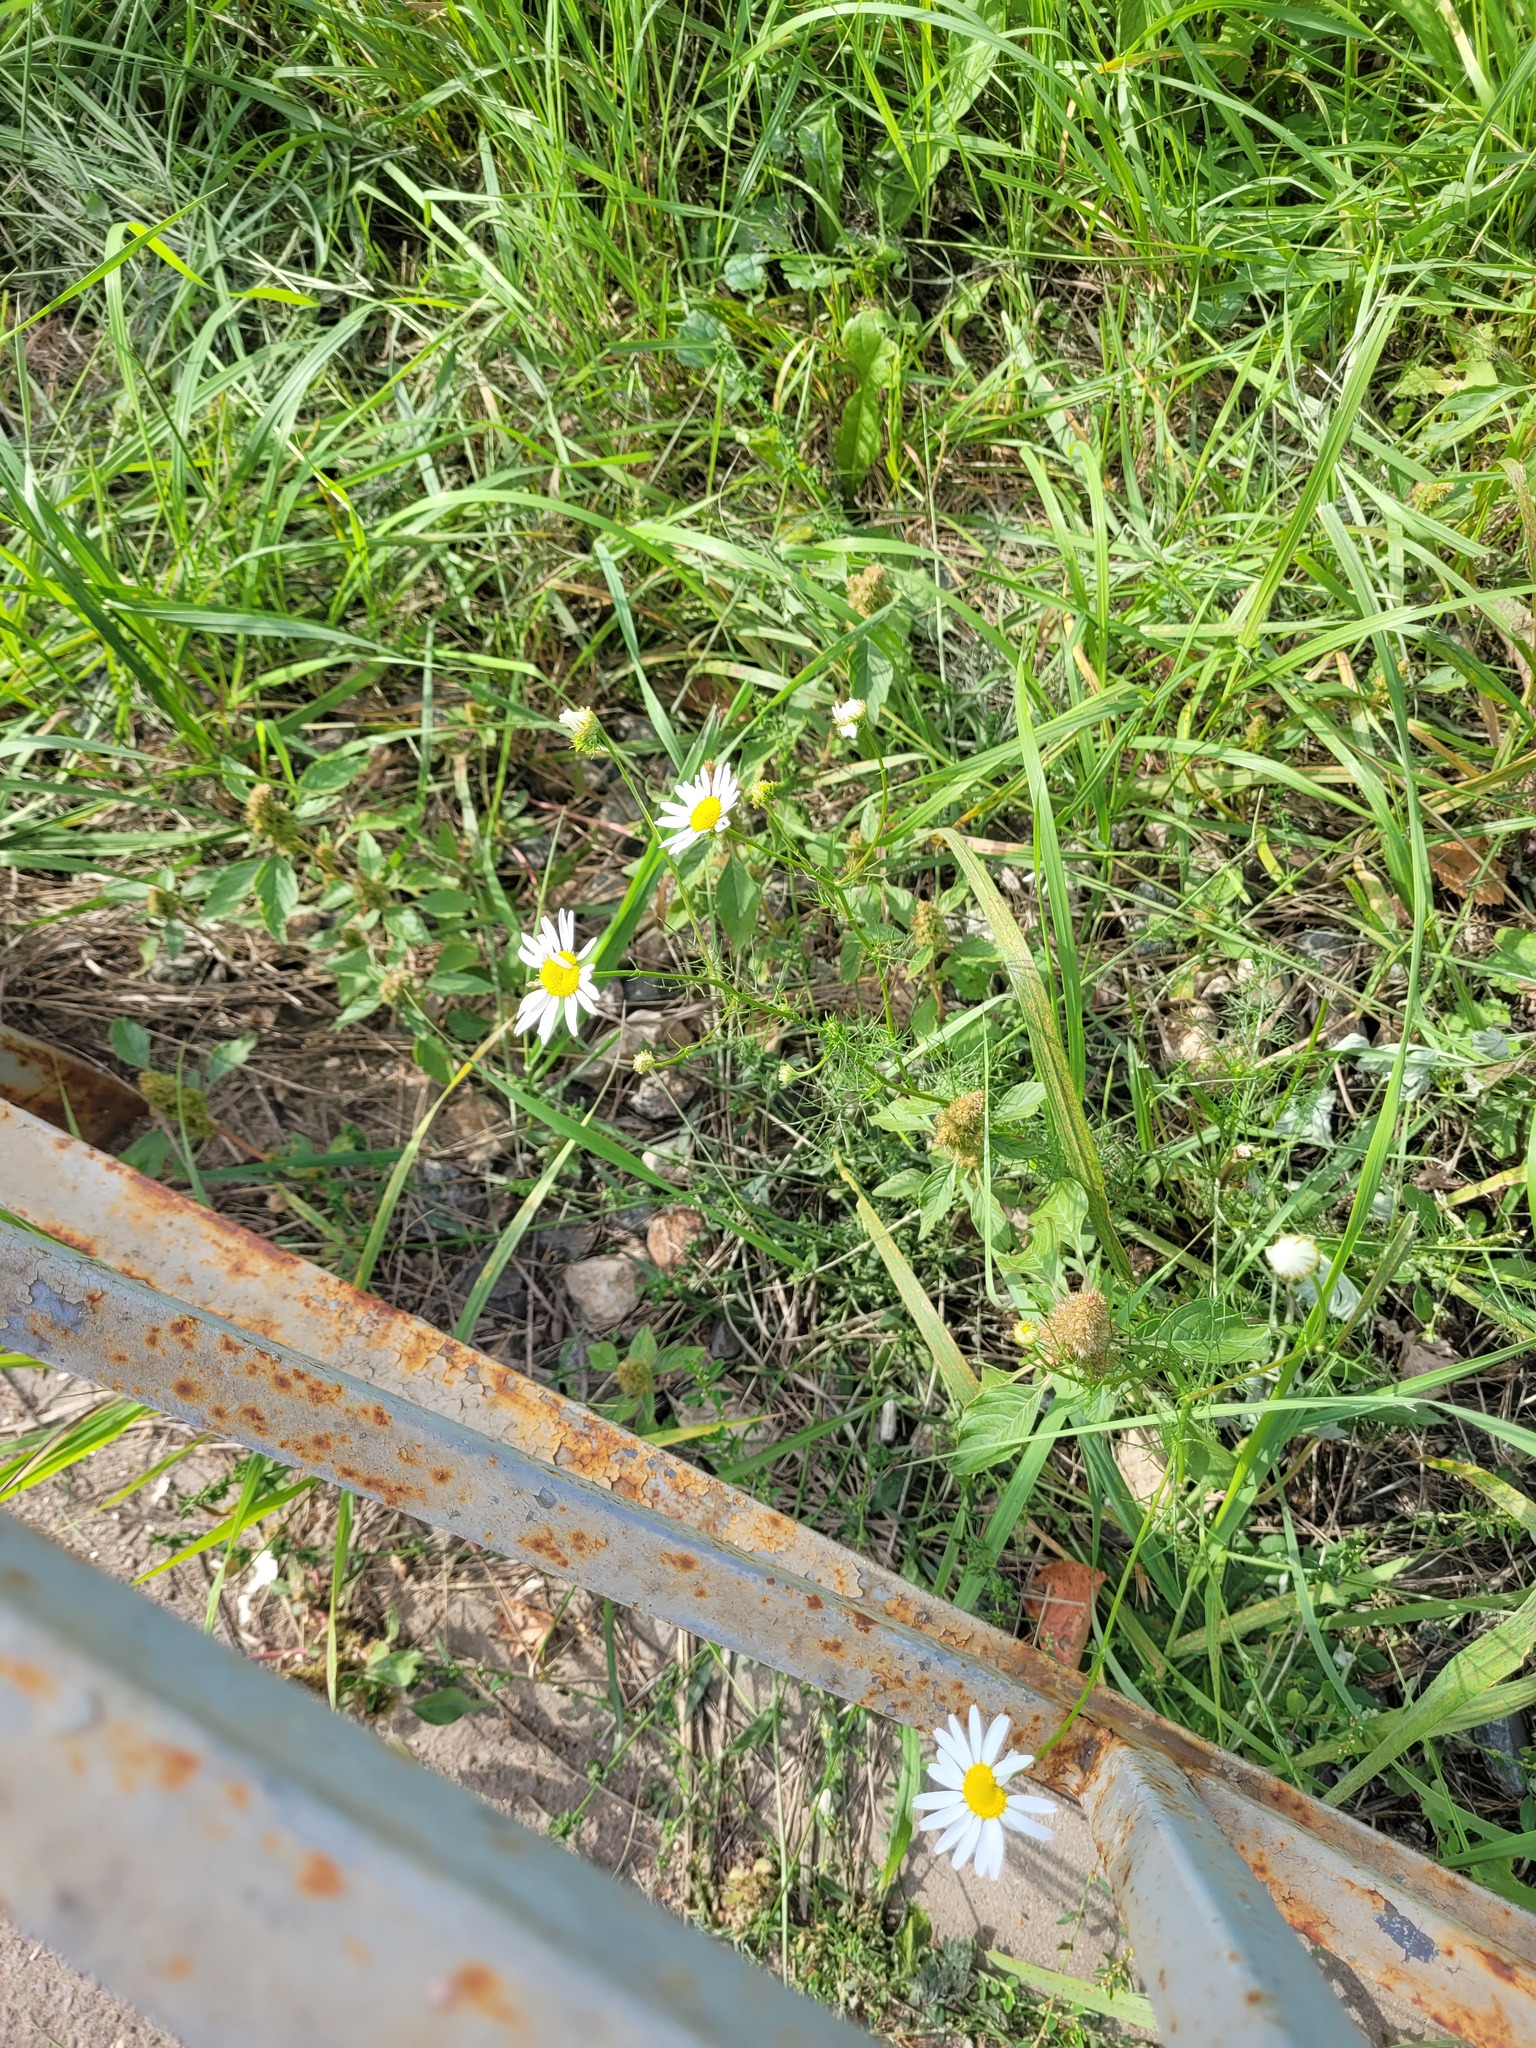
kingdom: Plantae
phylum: Tracheophyta
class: Magnoliopsida
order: Asterales
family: Asteraceae
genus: Tripleurospermum
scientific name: Tripleurospermum inodorum
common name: Scentless mayweed
